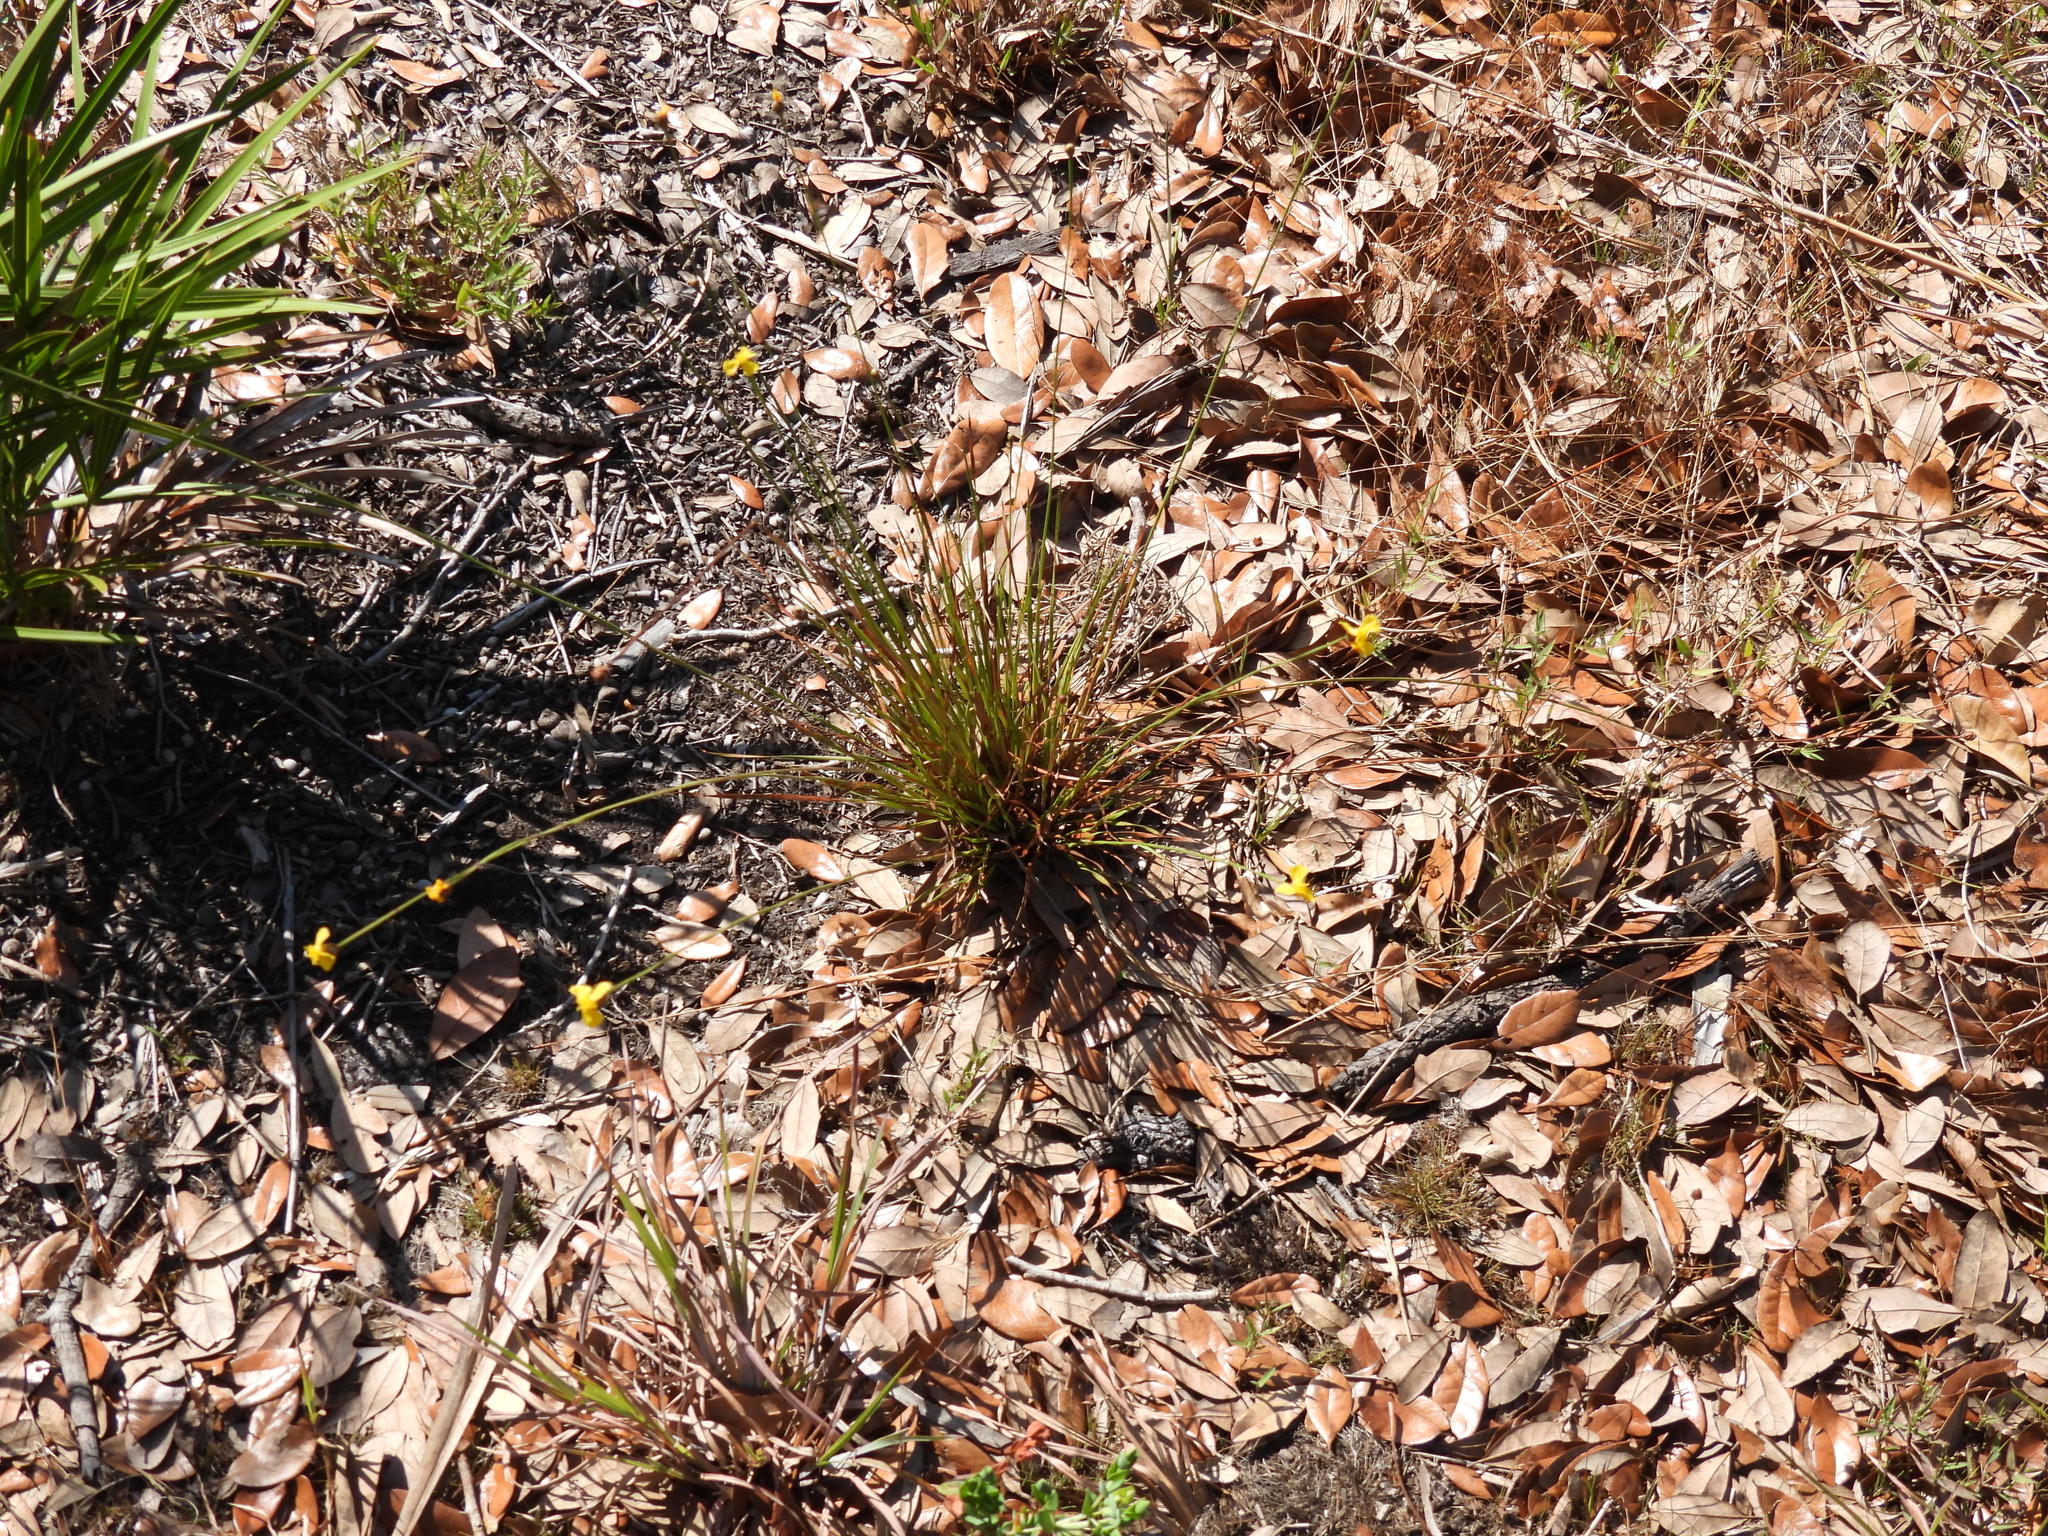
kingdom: Plantae
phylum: Tracheophyta
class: Liliopsida
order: Poales
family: Xyridaceae
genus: Xyris
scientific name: Xyris elliottii
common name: Elliot's yelloweyed grass
